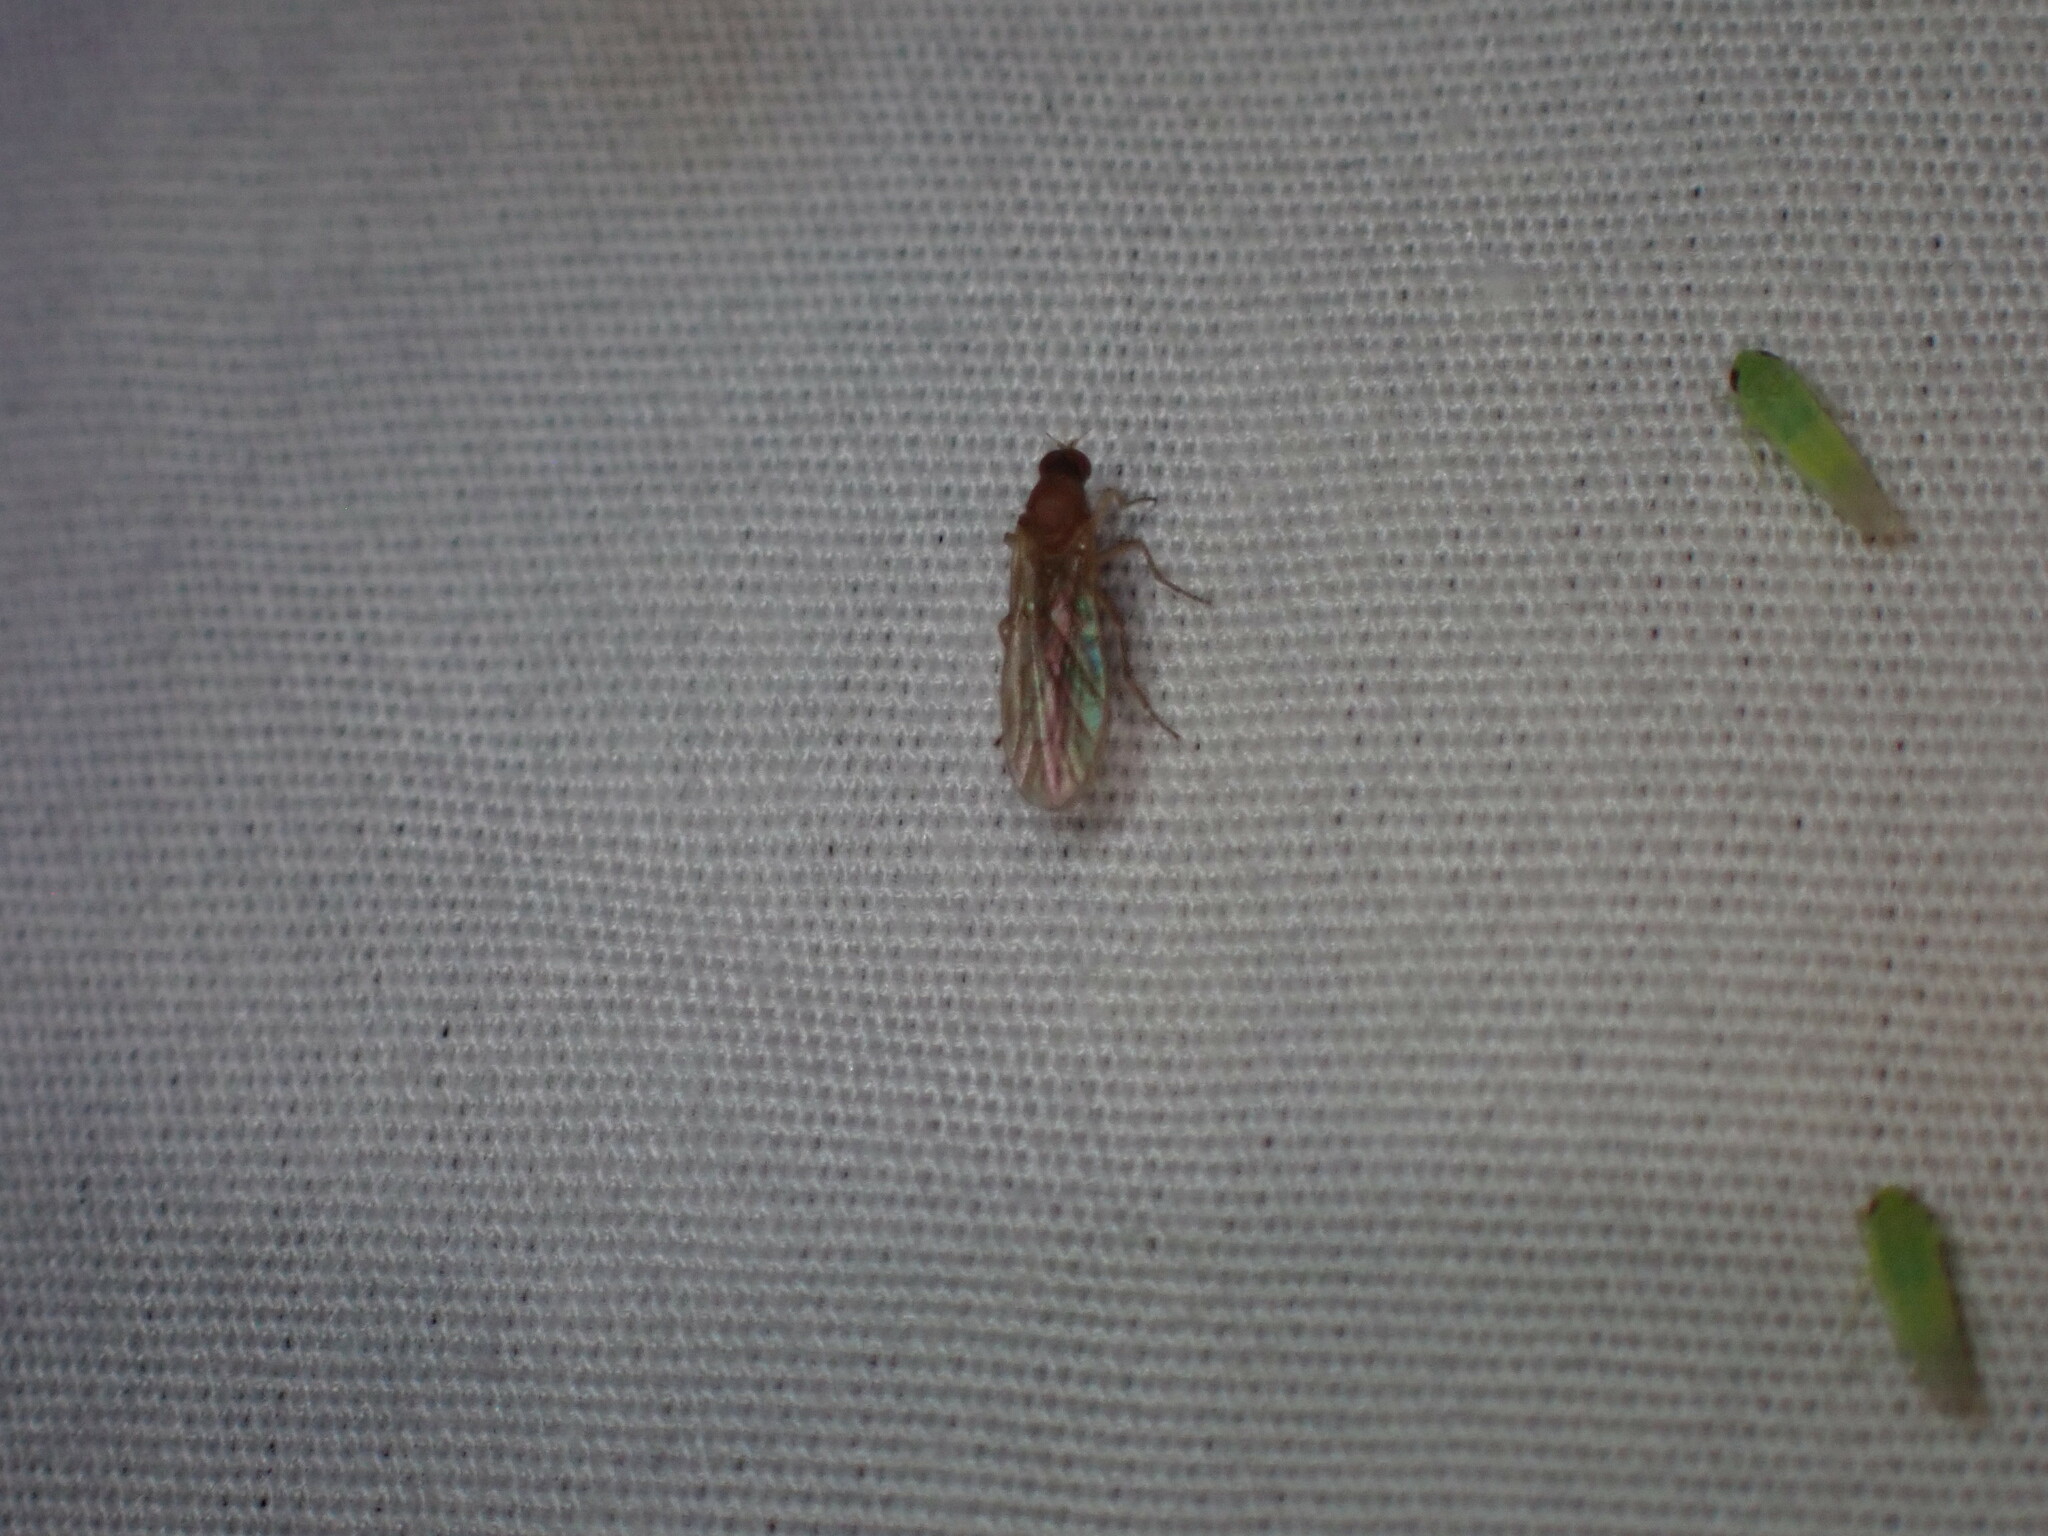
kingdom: Animalia
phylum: Arthropoda
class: Insecta
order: Diptera
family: Empididae
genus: Hilara
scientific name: Hilara lutea
